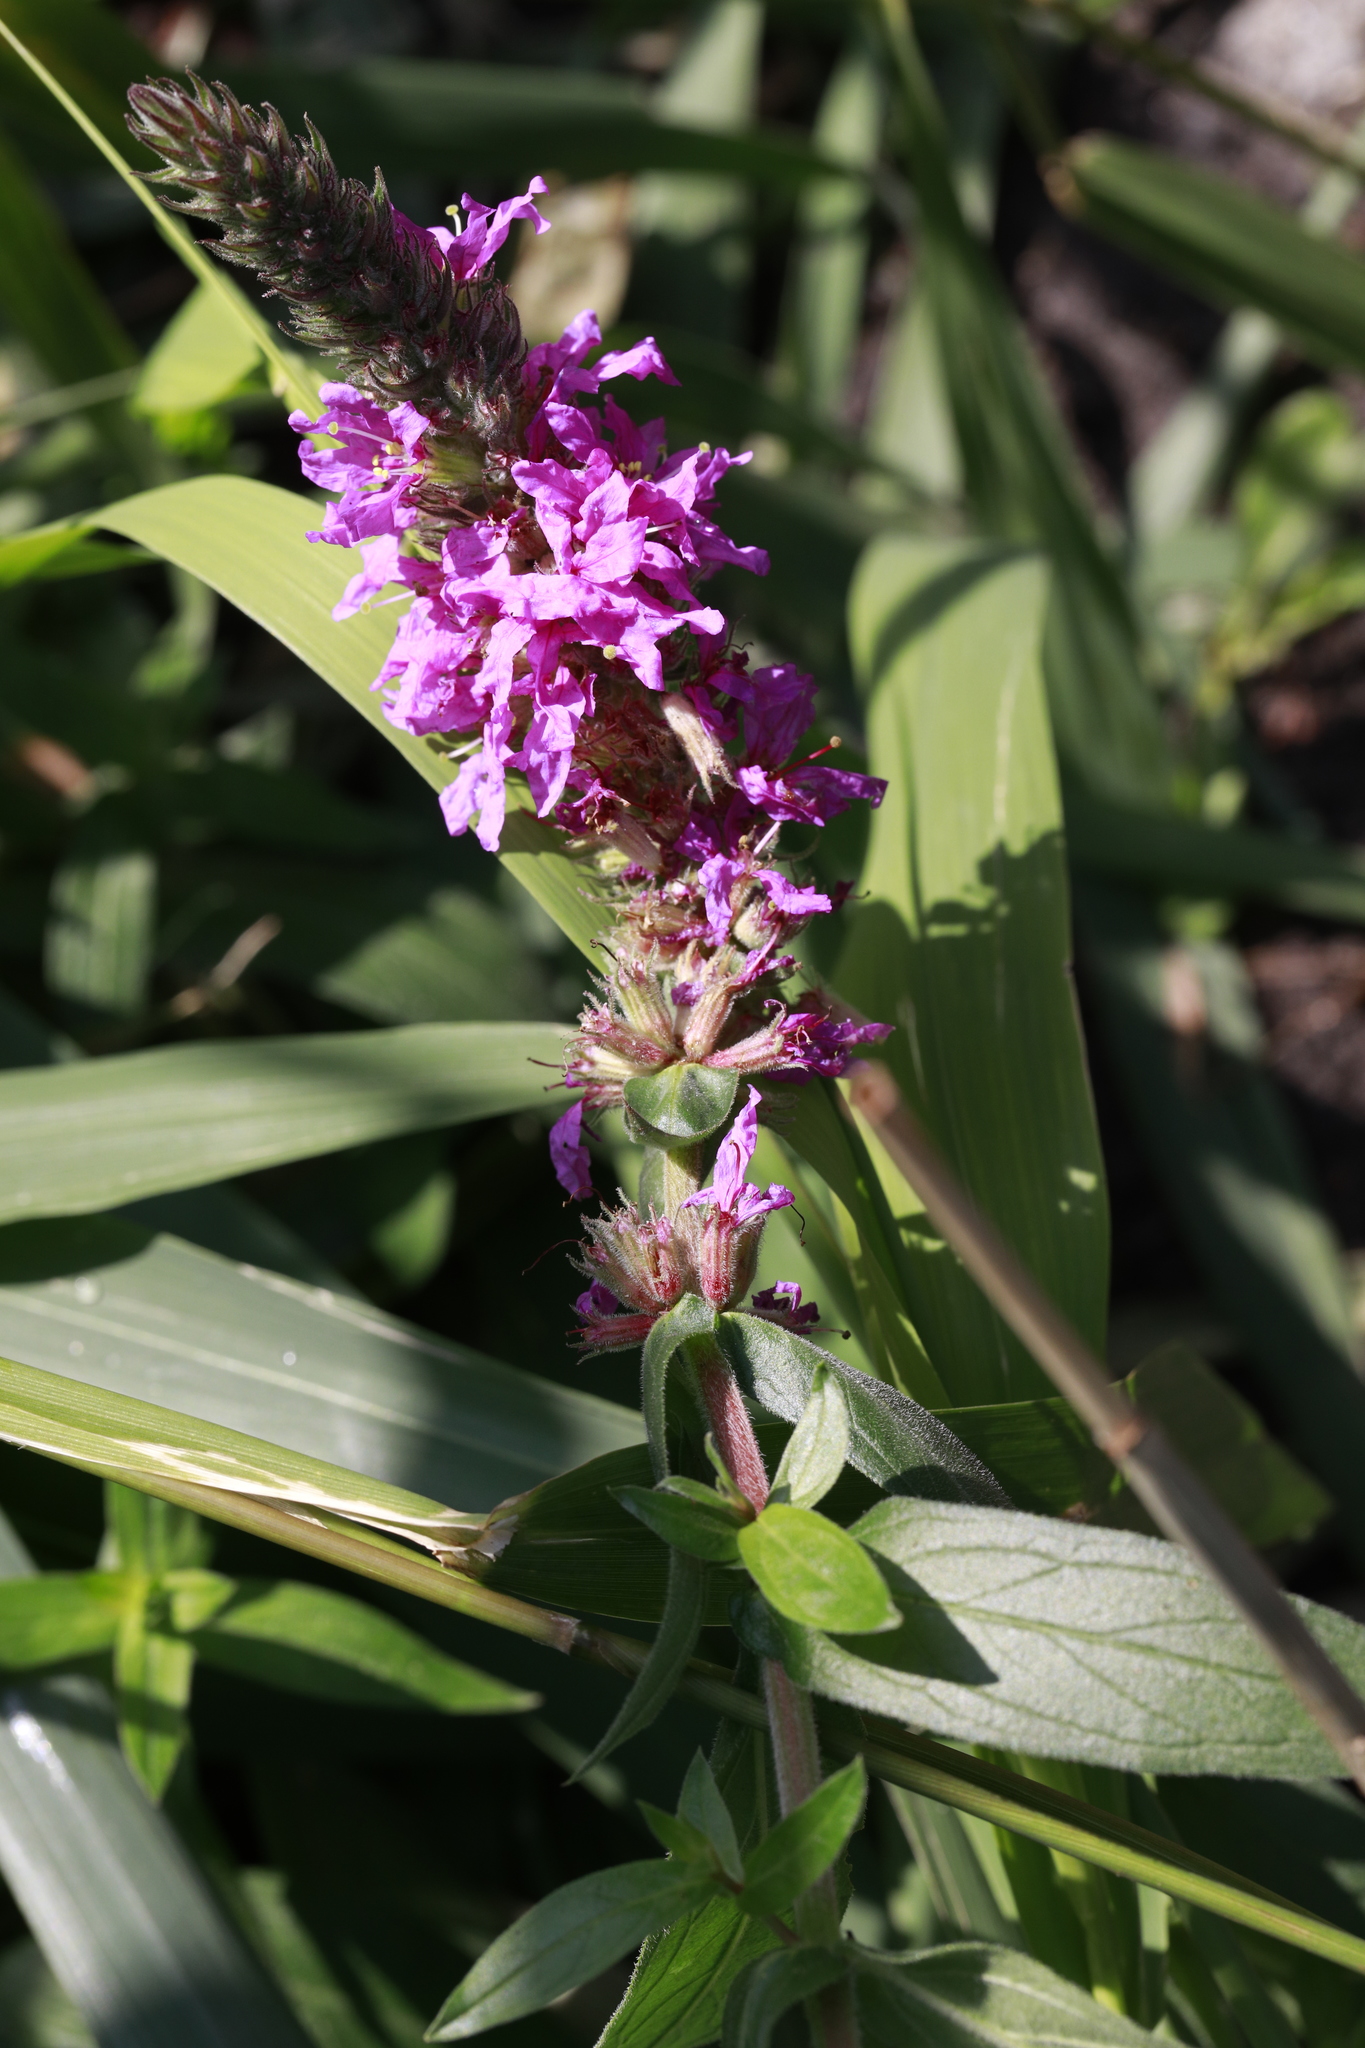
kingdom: Plantae
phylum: Tracheophyta
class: Magnoliopsida
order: Myrtales
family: Lythraceae
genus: Lythrum
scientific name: Lythrum salicaria
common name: Purple loosestrife
